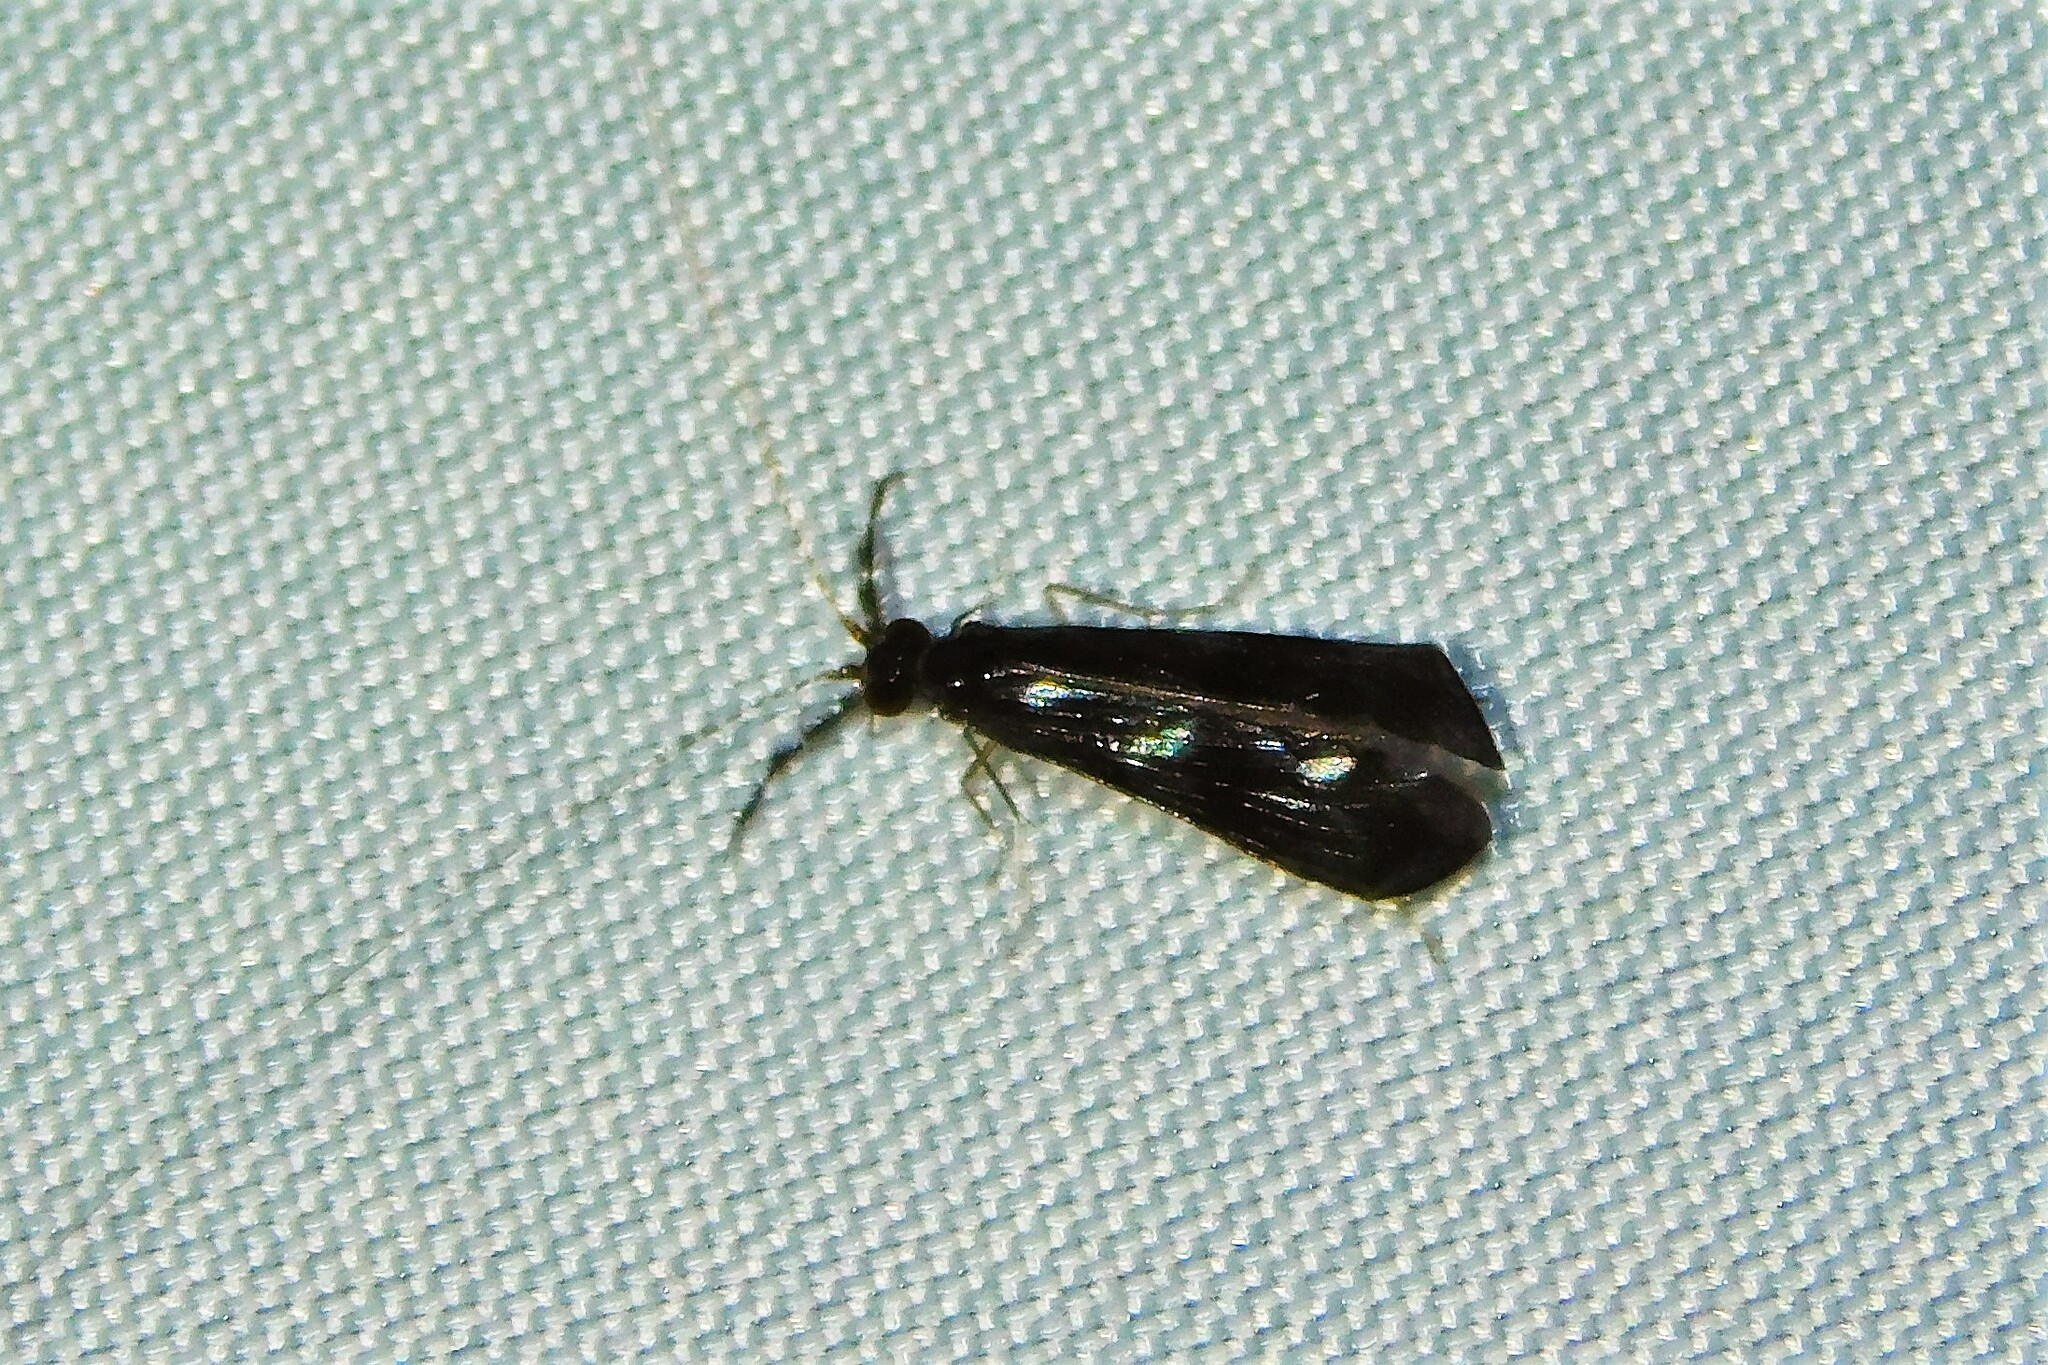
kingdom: Animalia
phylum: Arthropoda
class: Insecta
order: Trichoptera
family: Leptoceridae
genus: Mystacides
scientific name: Mystacides azureus
